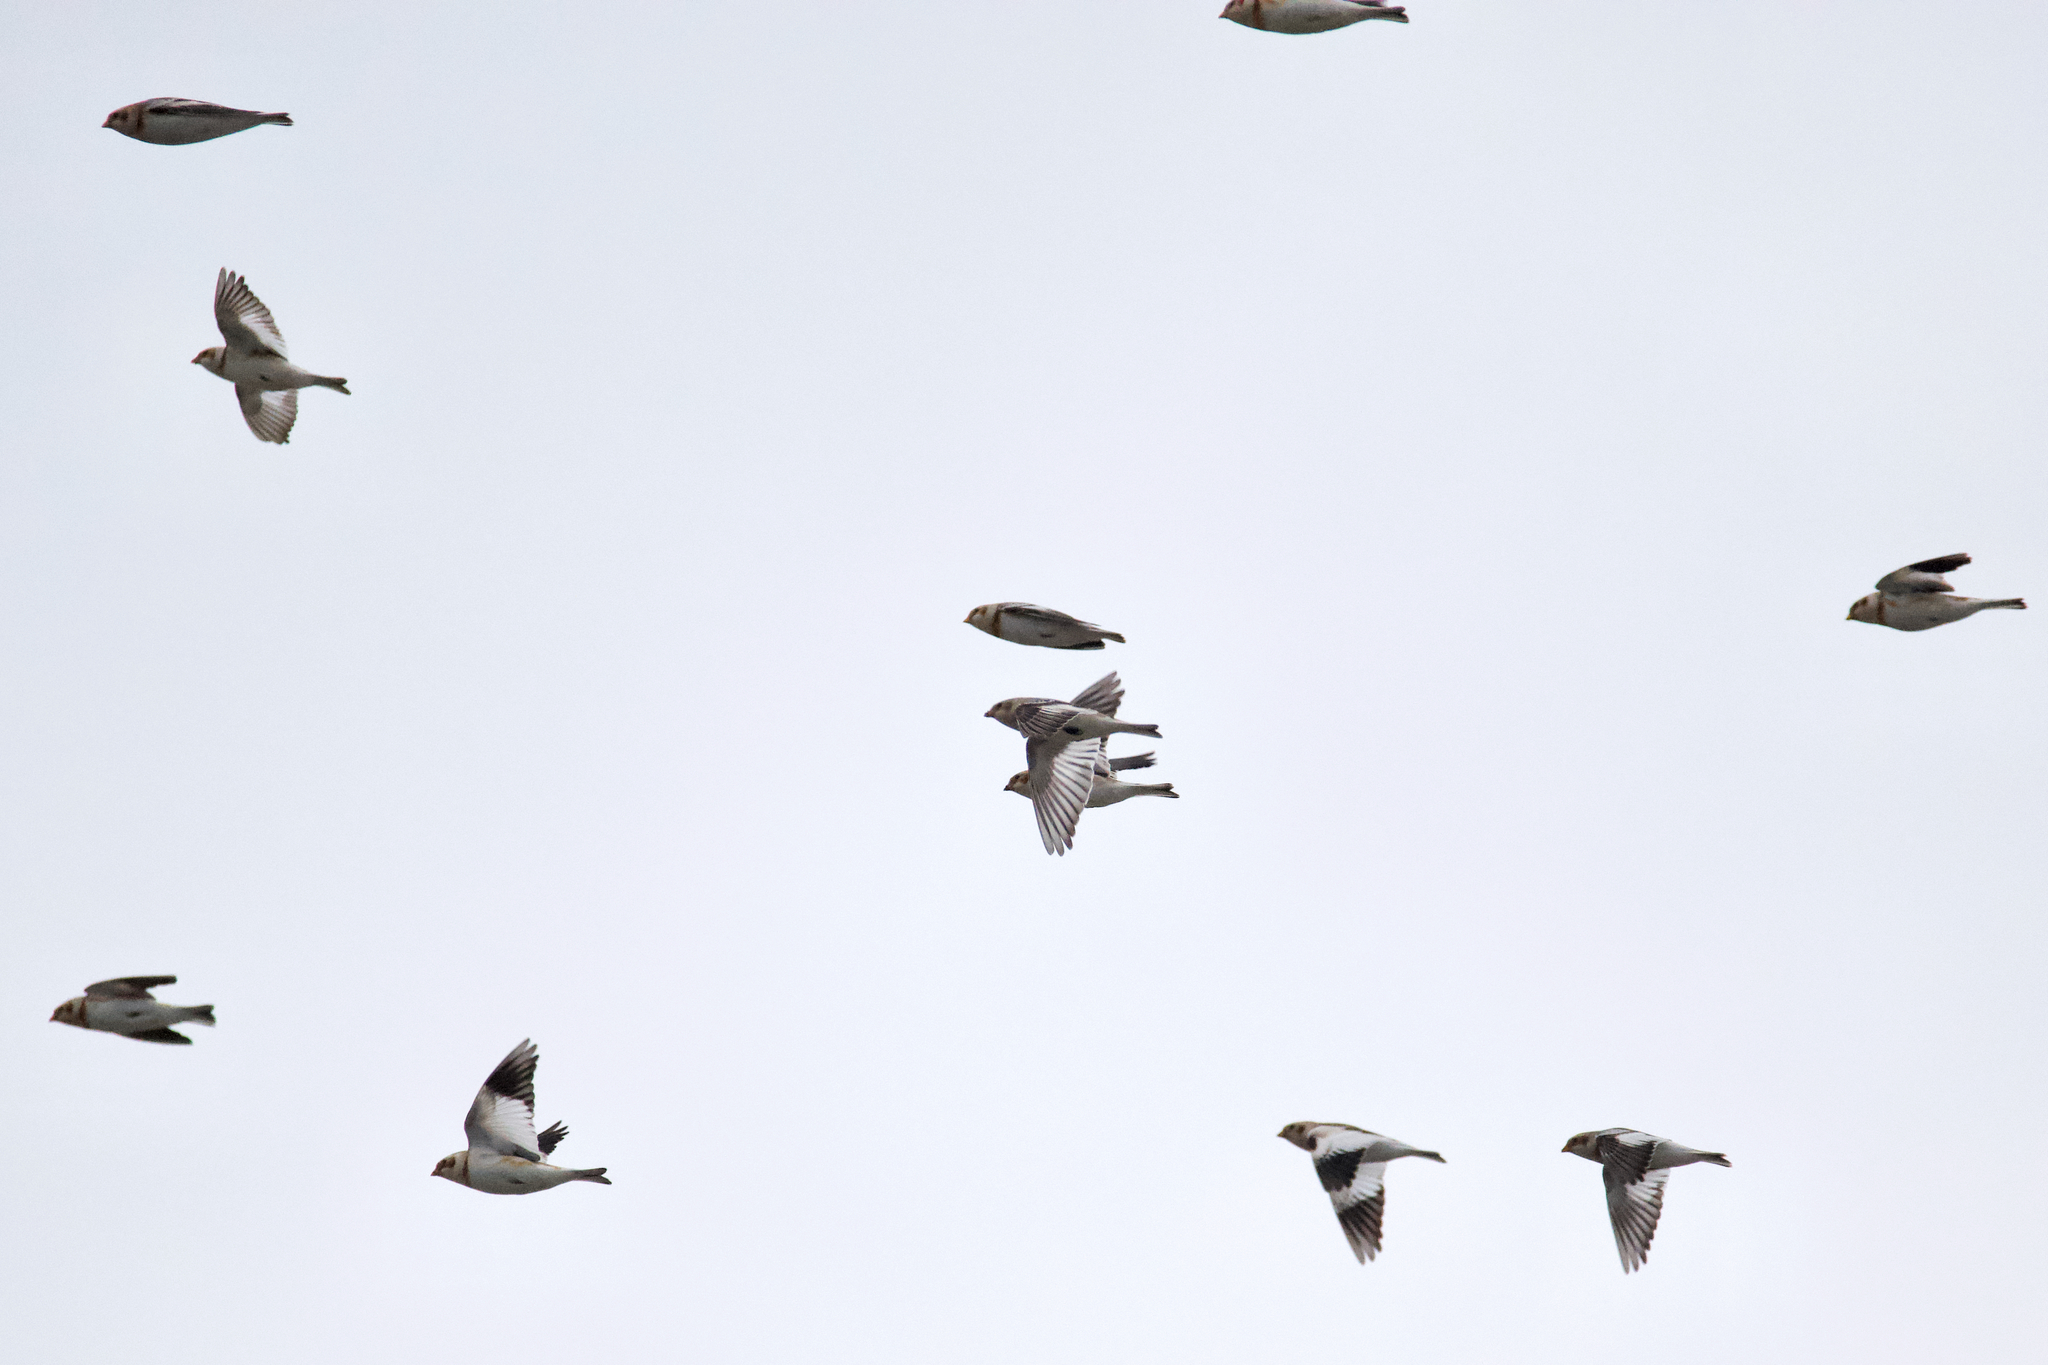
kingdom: Animalia
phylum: Chordata
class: Aves
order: Passeriformes
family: Calcariidae
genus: Plectrophenax
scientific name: Plectrophenax nivalis
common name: Snow bunting
